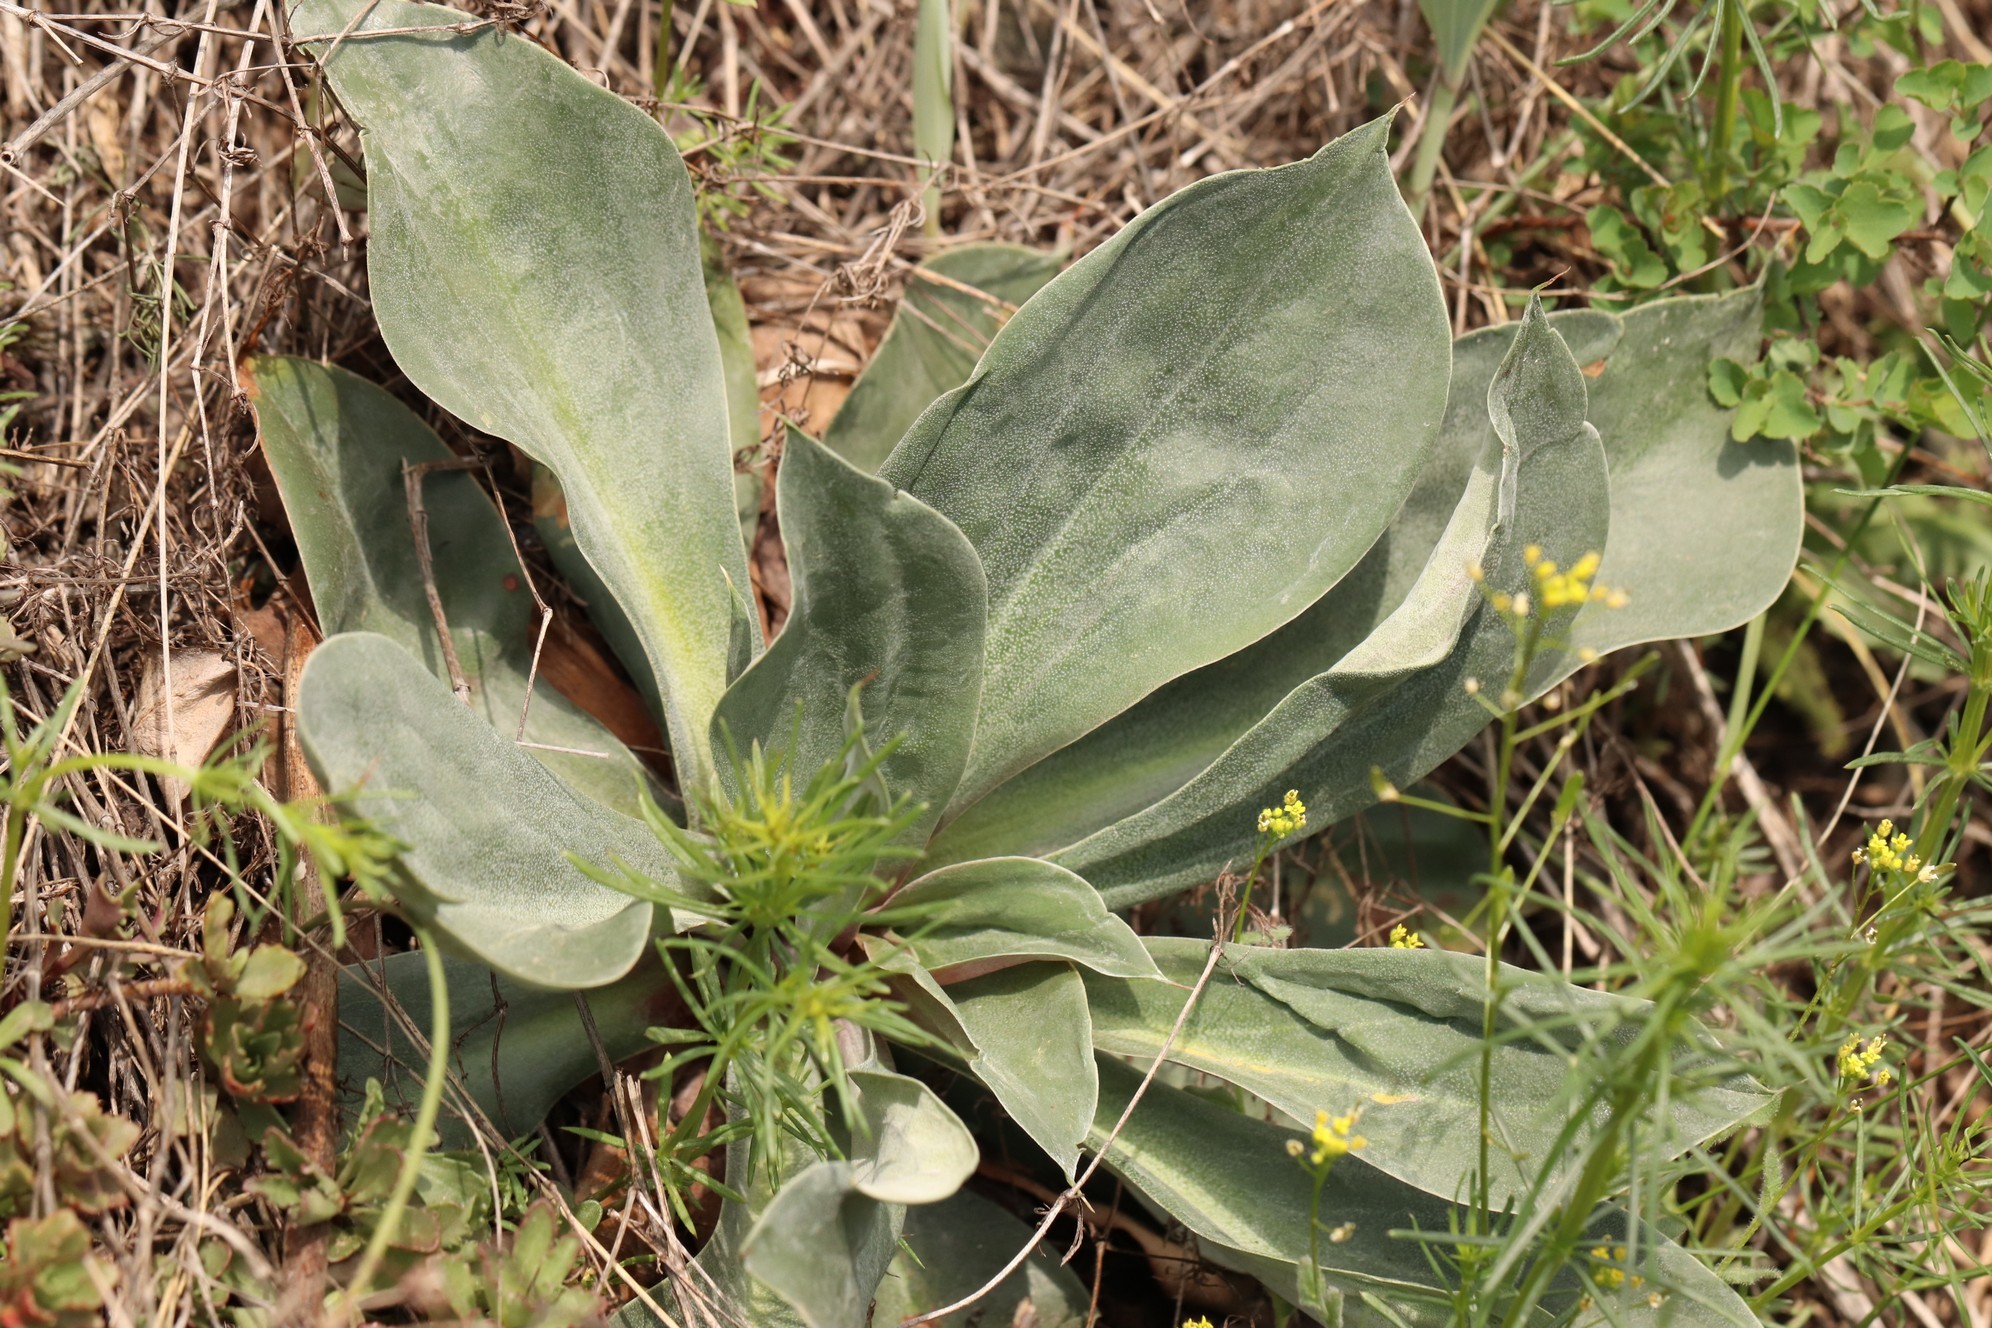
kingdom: Plantae
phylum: Tracheophyta
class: Magnoliopsida
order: Caryophyllales
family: Plumbaginaceae
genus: Goniolimon
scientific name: Goniolimon speciosum
